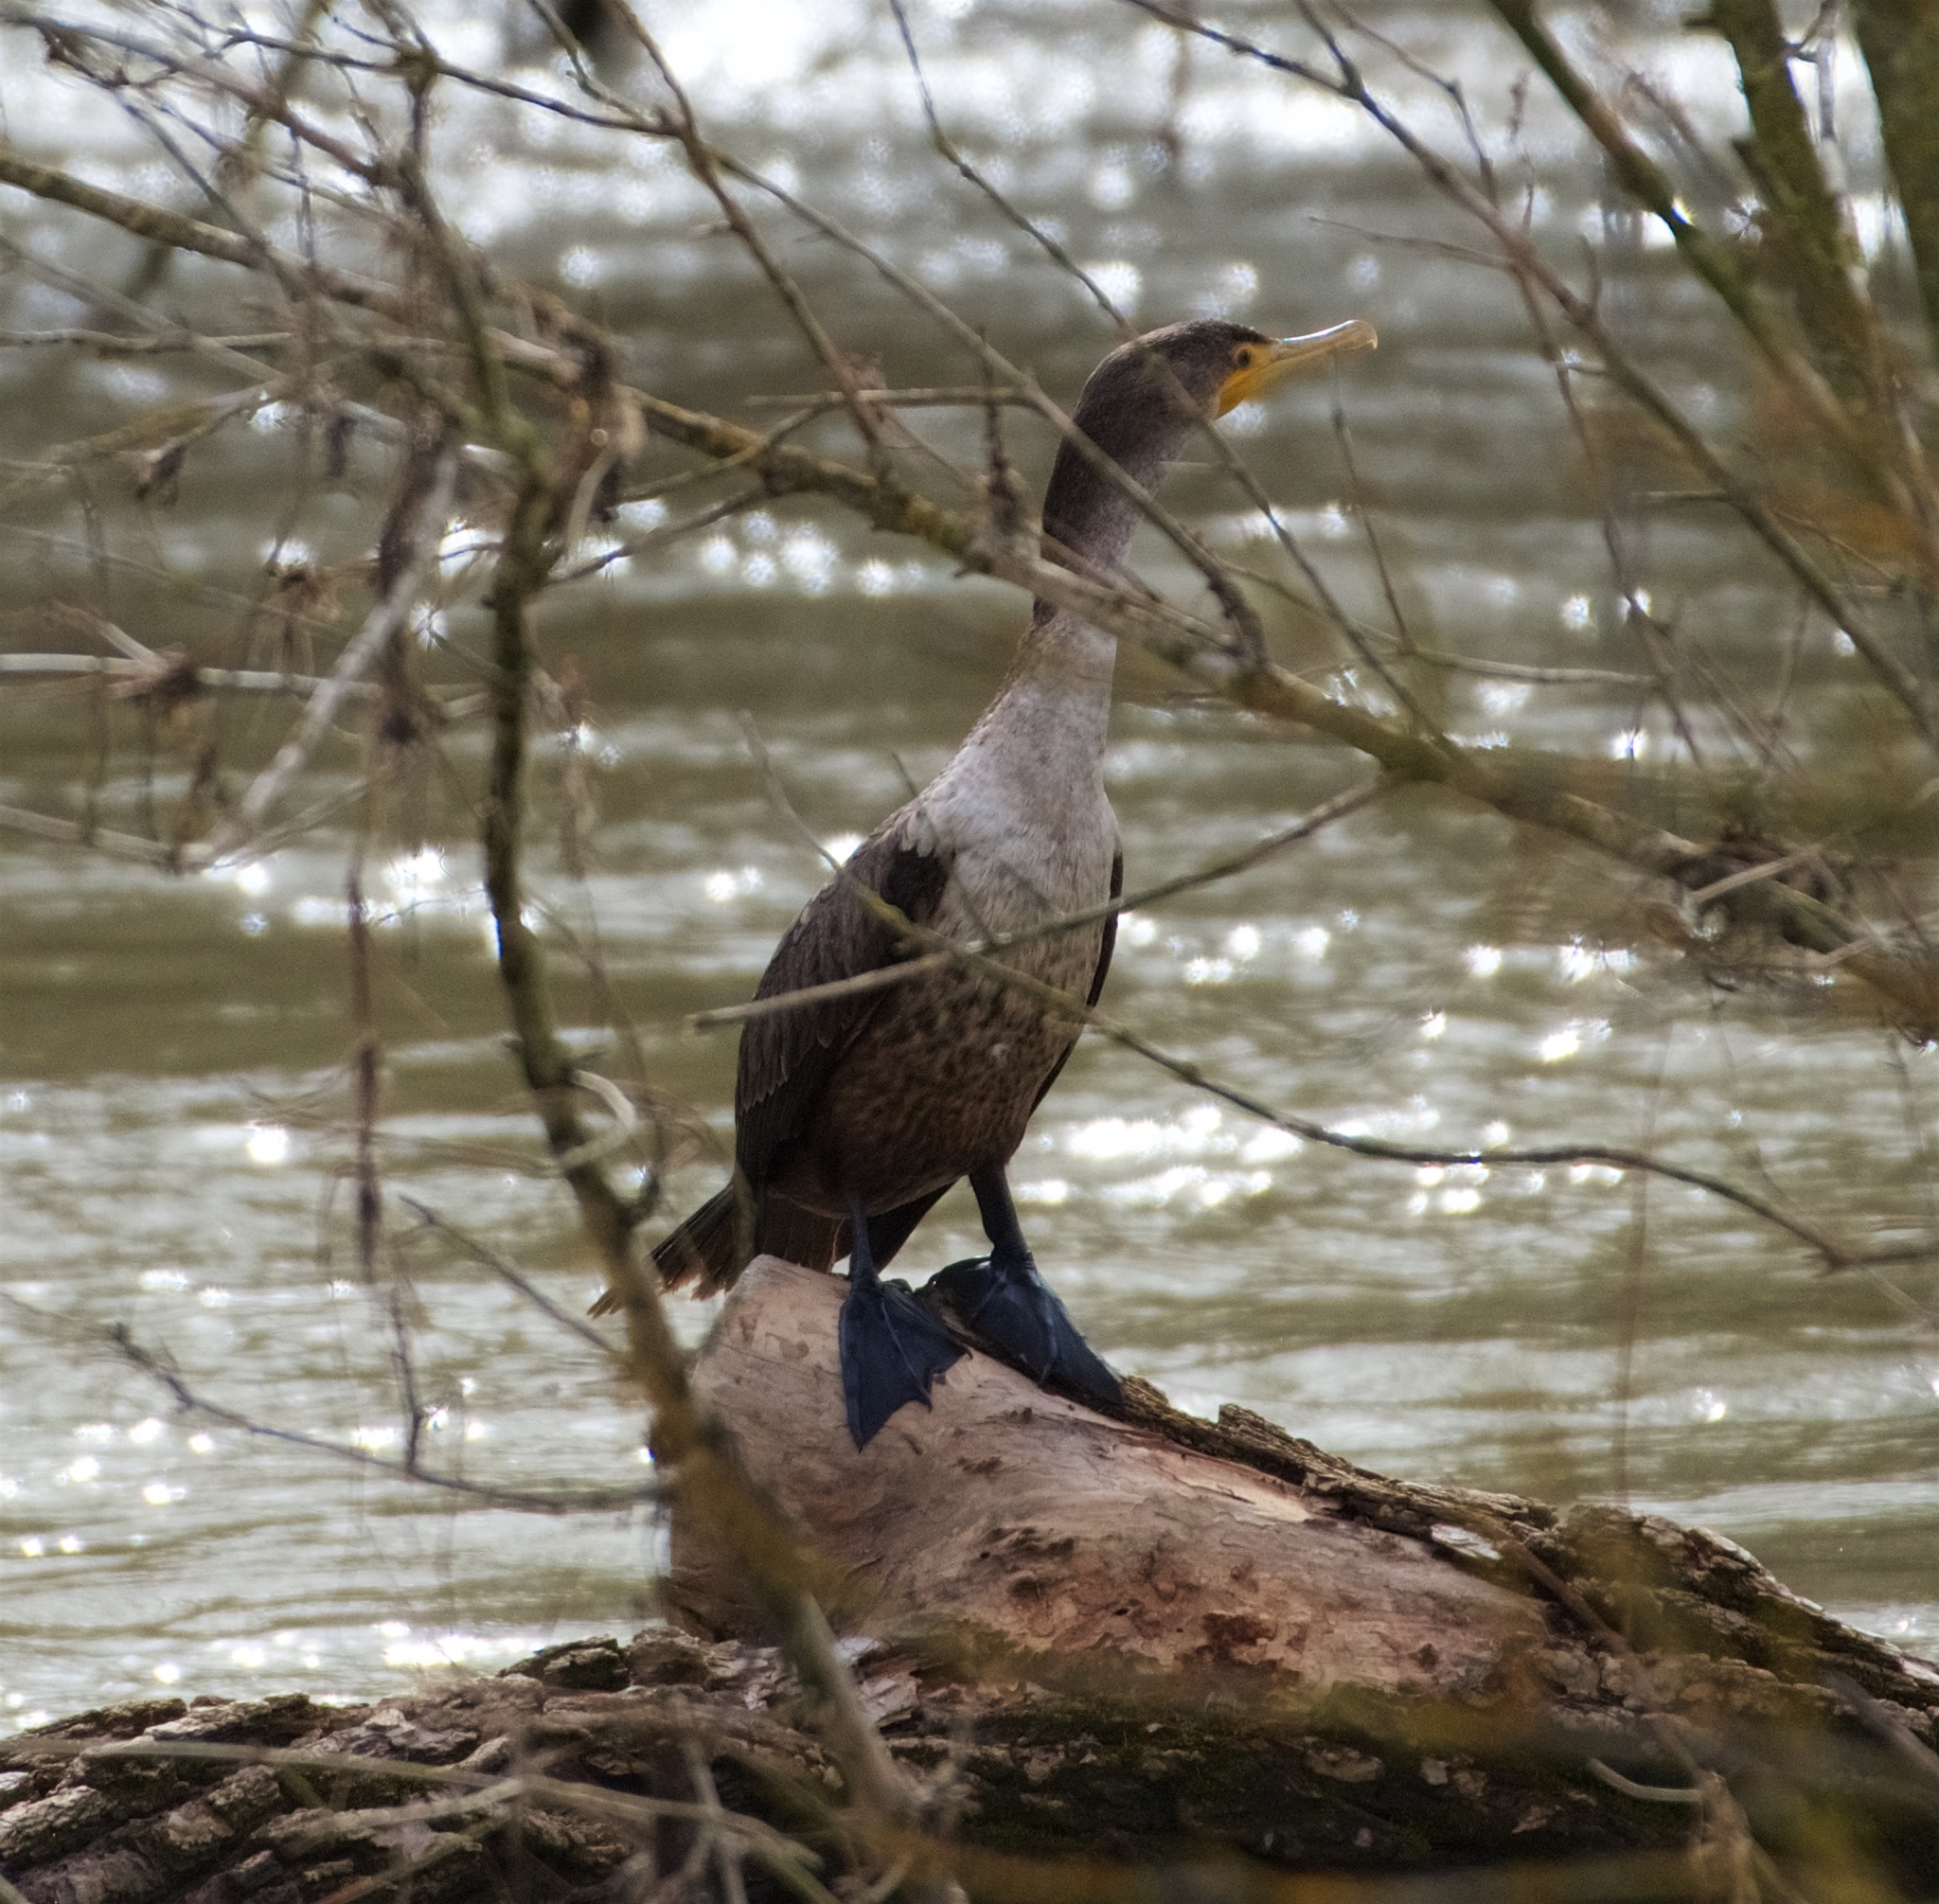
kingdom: Animalia
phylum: Chordata
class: Aves
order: Suliformes
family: Phalacrocoracidae
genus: Phalacrocorax
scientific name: Phalacrocorax auritus
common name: Double-crested cormorant
